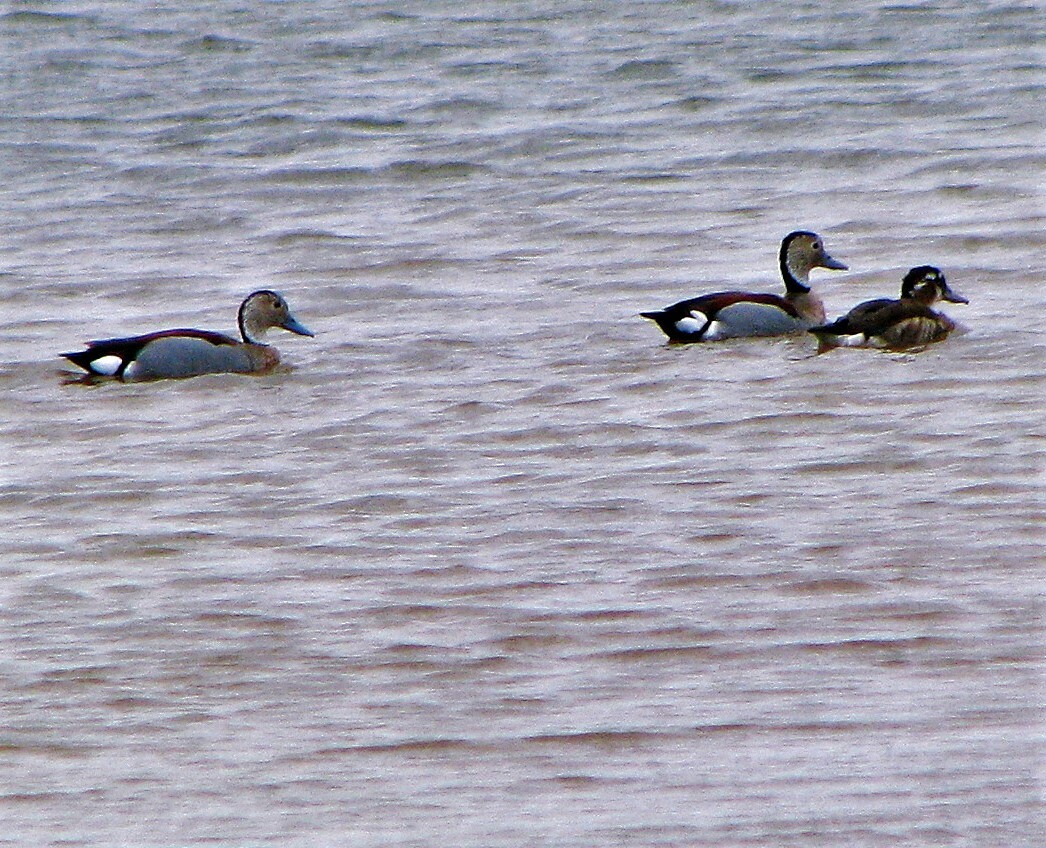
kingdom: Animalia
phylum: Chordata
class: Aves
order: Anseriformes
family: Anatidae
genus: Callonetta
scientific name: Callonetta leucophrys
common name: Ringed teal
